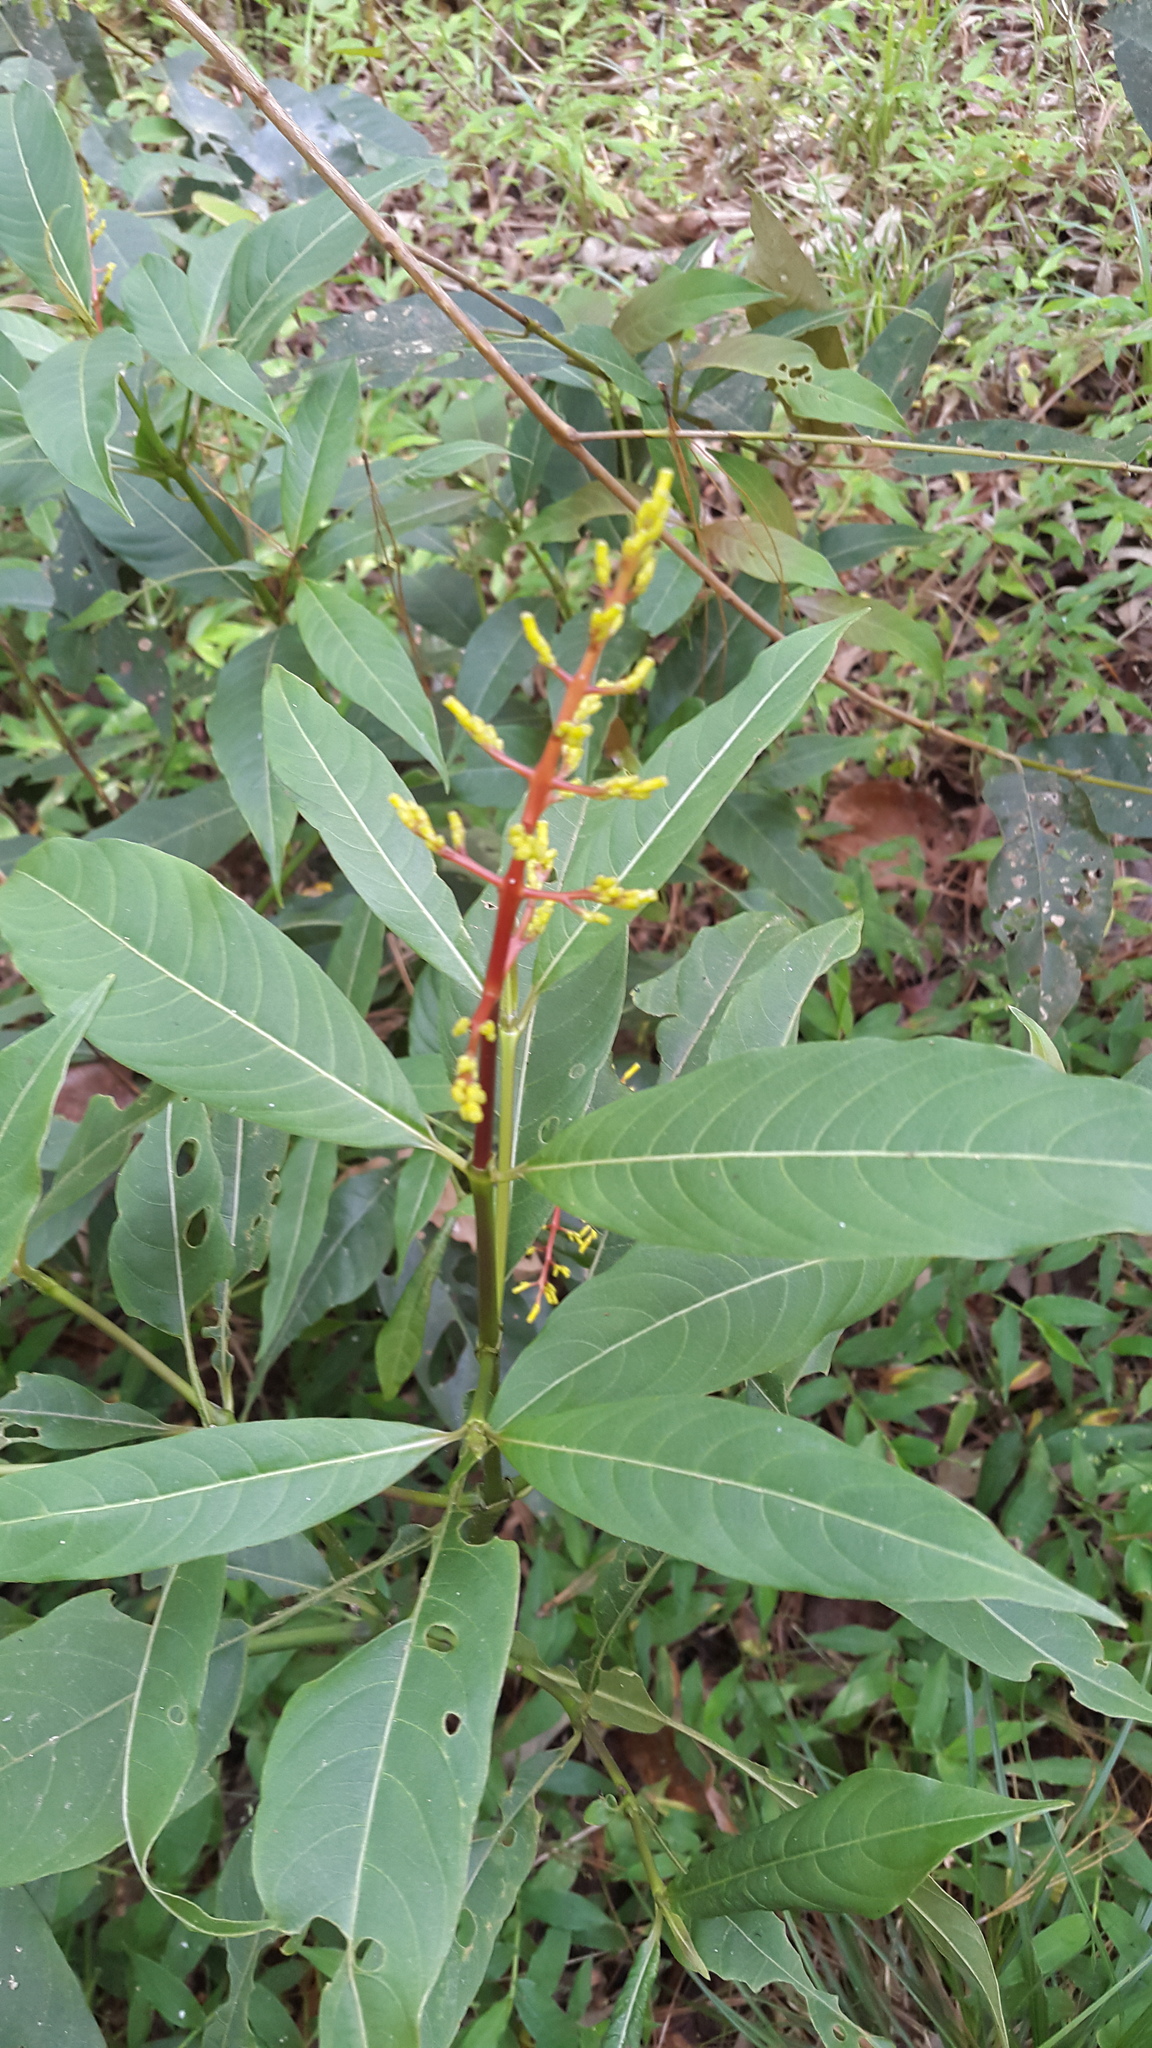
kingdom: Plantae
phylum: Tracheophyta
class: Magnoliopsida
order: Gentianales
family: Rubiaceae
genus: Palicourea
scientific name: Palicourea padifolia
